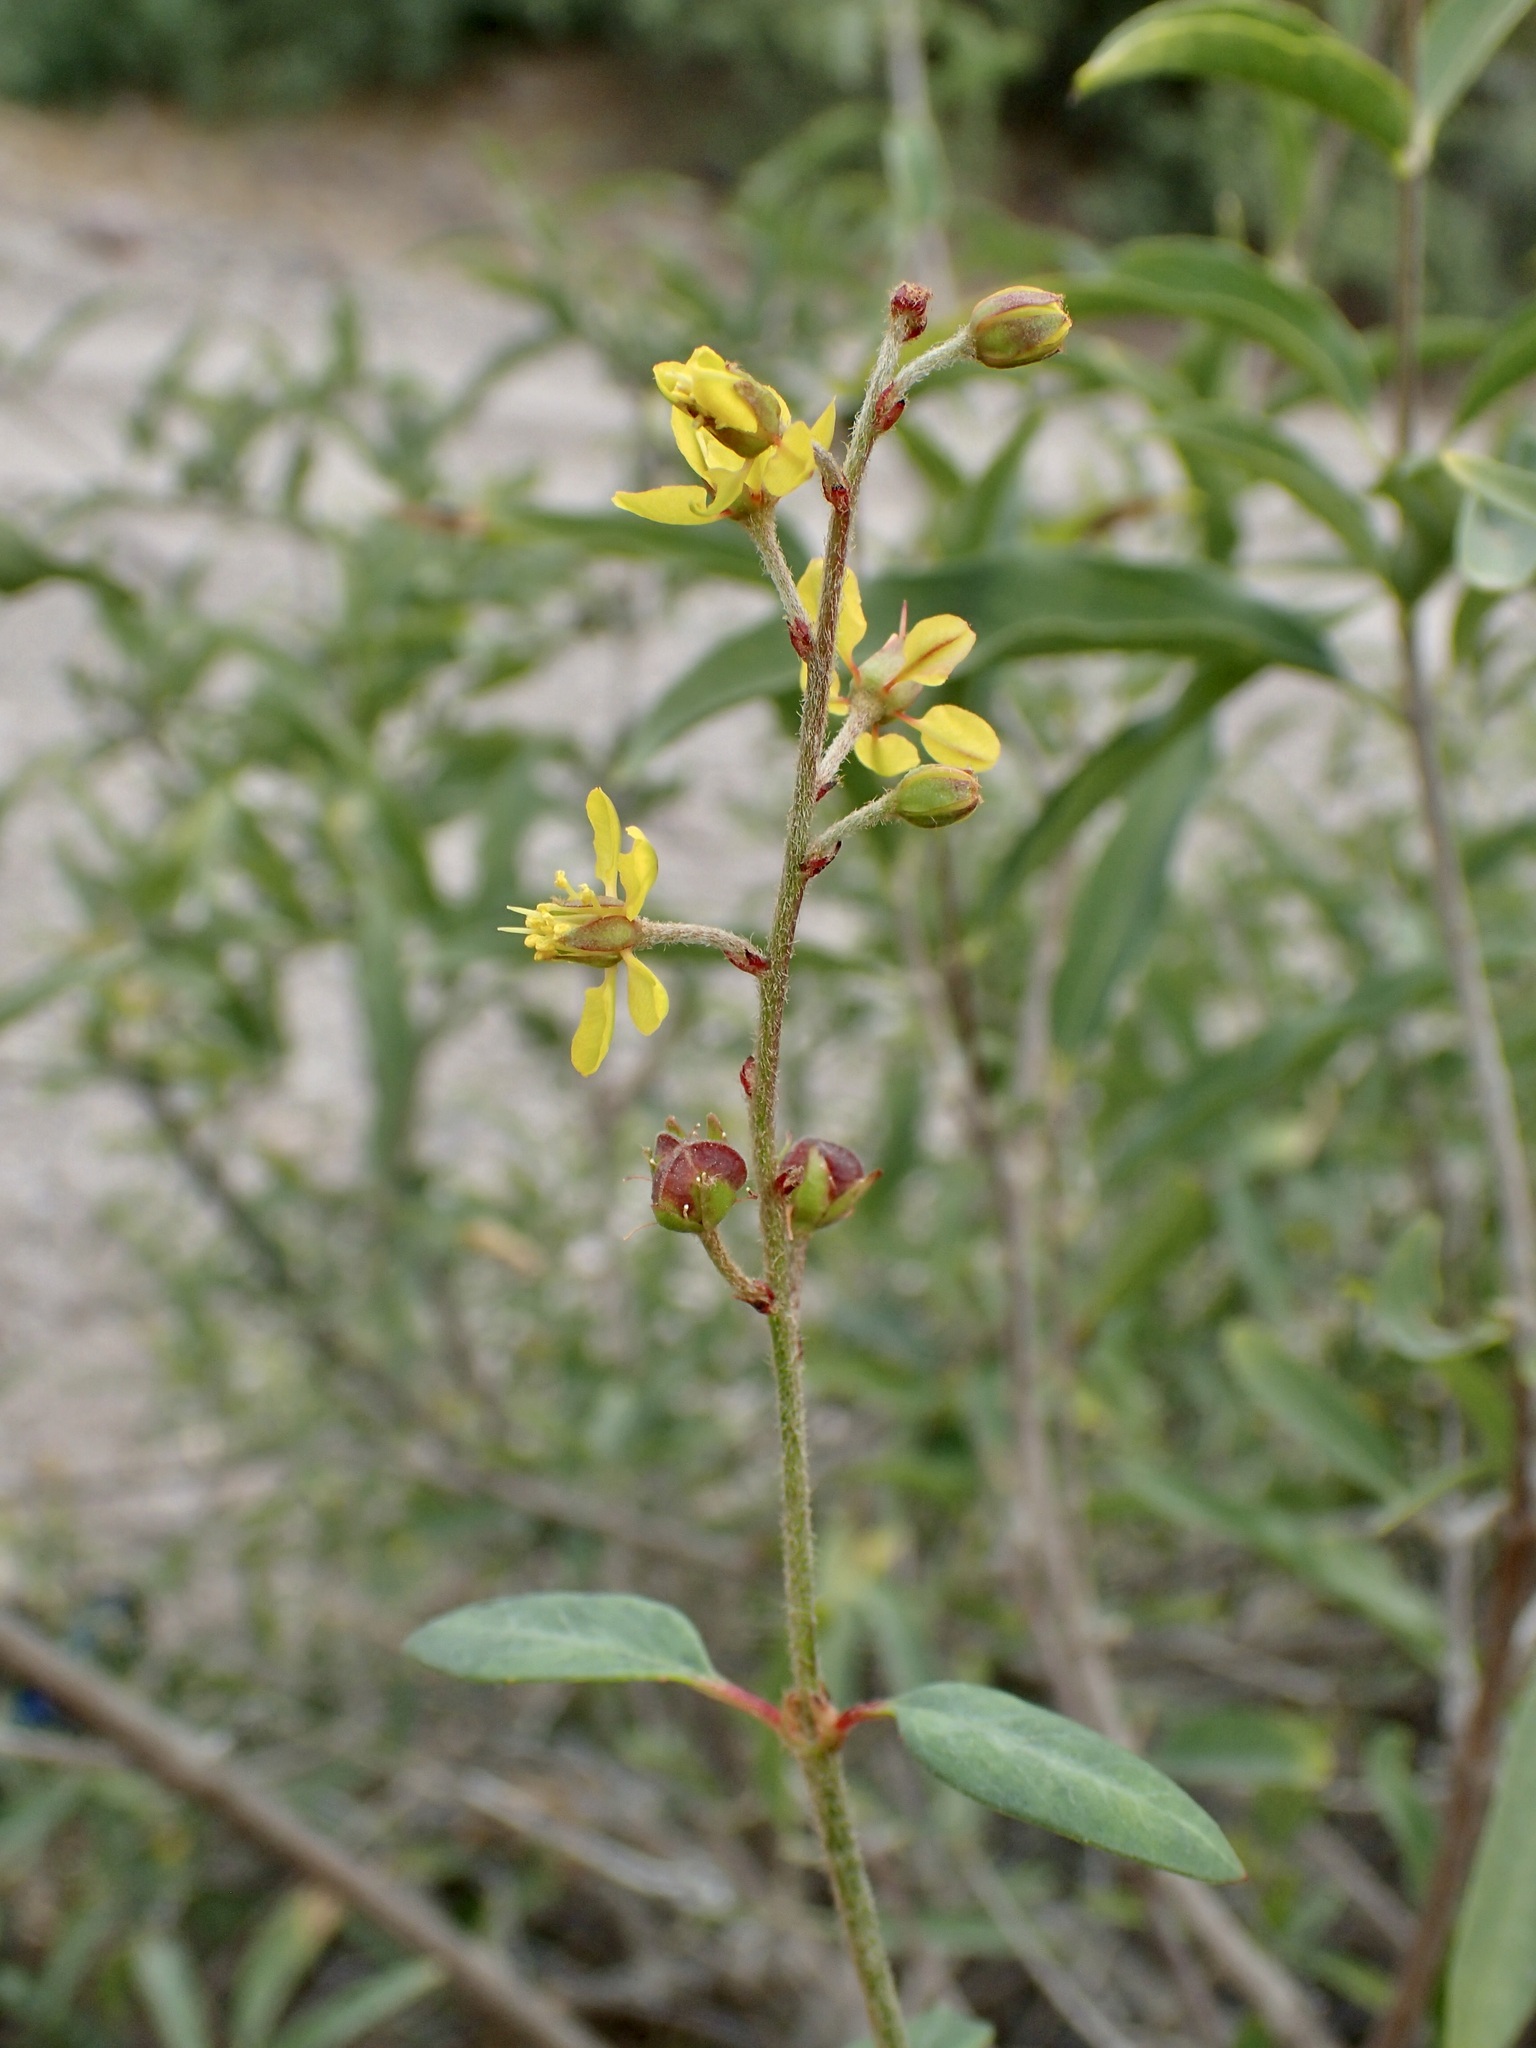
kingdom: Plantae
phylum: Tracheophyta
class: Magnoliopsida
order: Malpighiales
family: Malpighiaceae
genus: Galphimia
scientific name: Galphimia angustifolia
